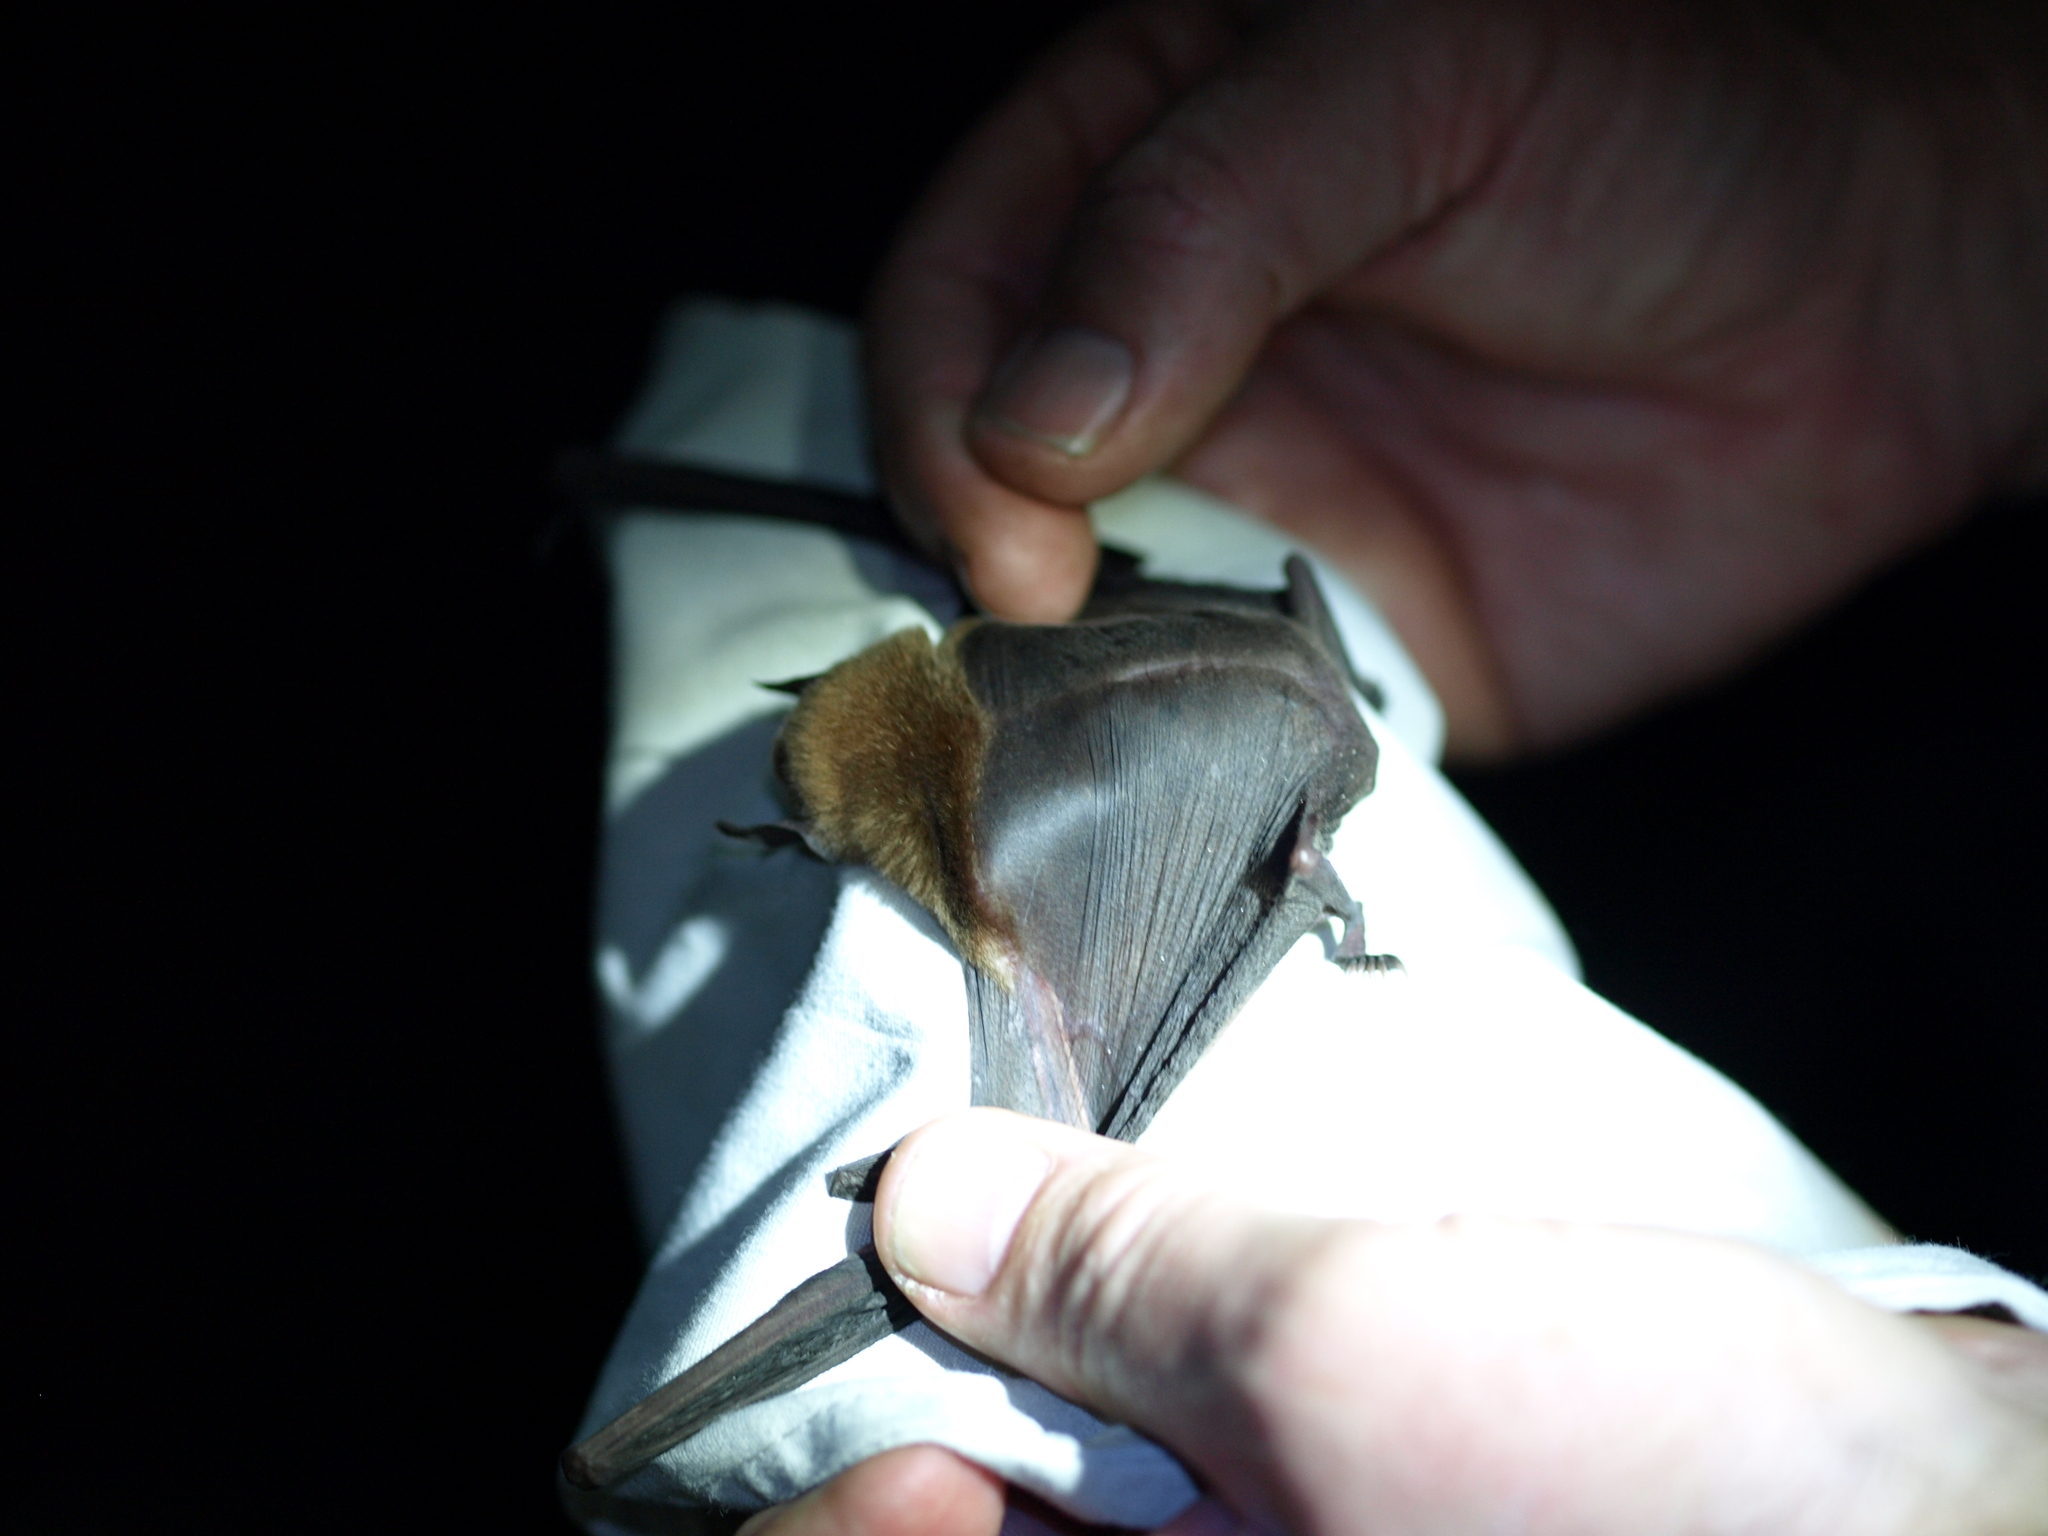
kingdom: Animalia
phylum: Chordata
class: Mammalia
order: Chiroptera
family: Mormoopidae
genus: Pteronotus
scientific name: Pteronotus fulvus
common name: Thomas's naked-backed bat
